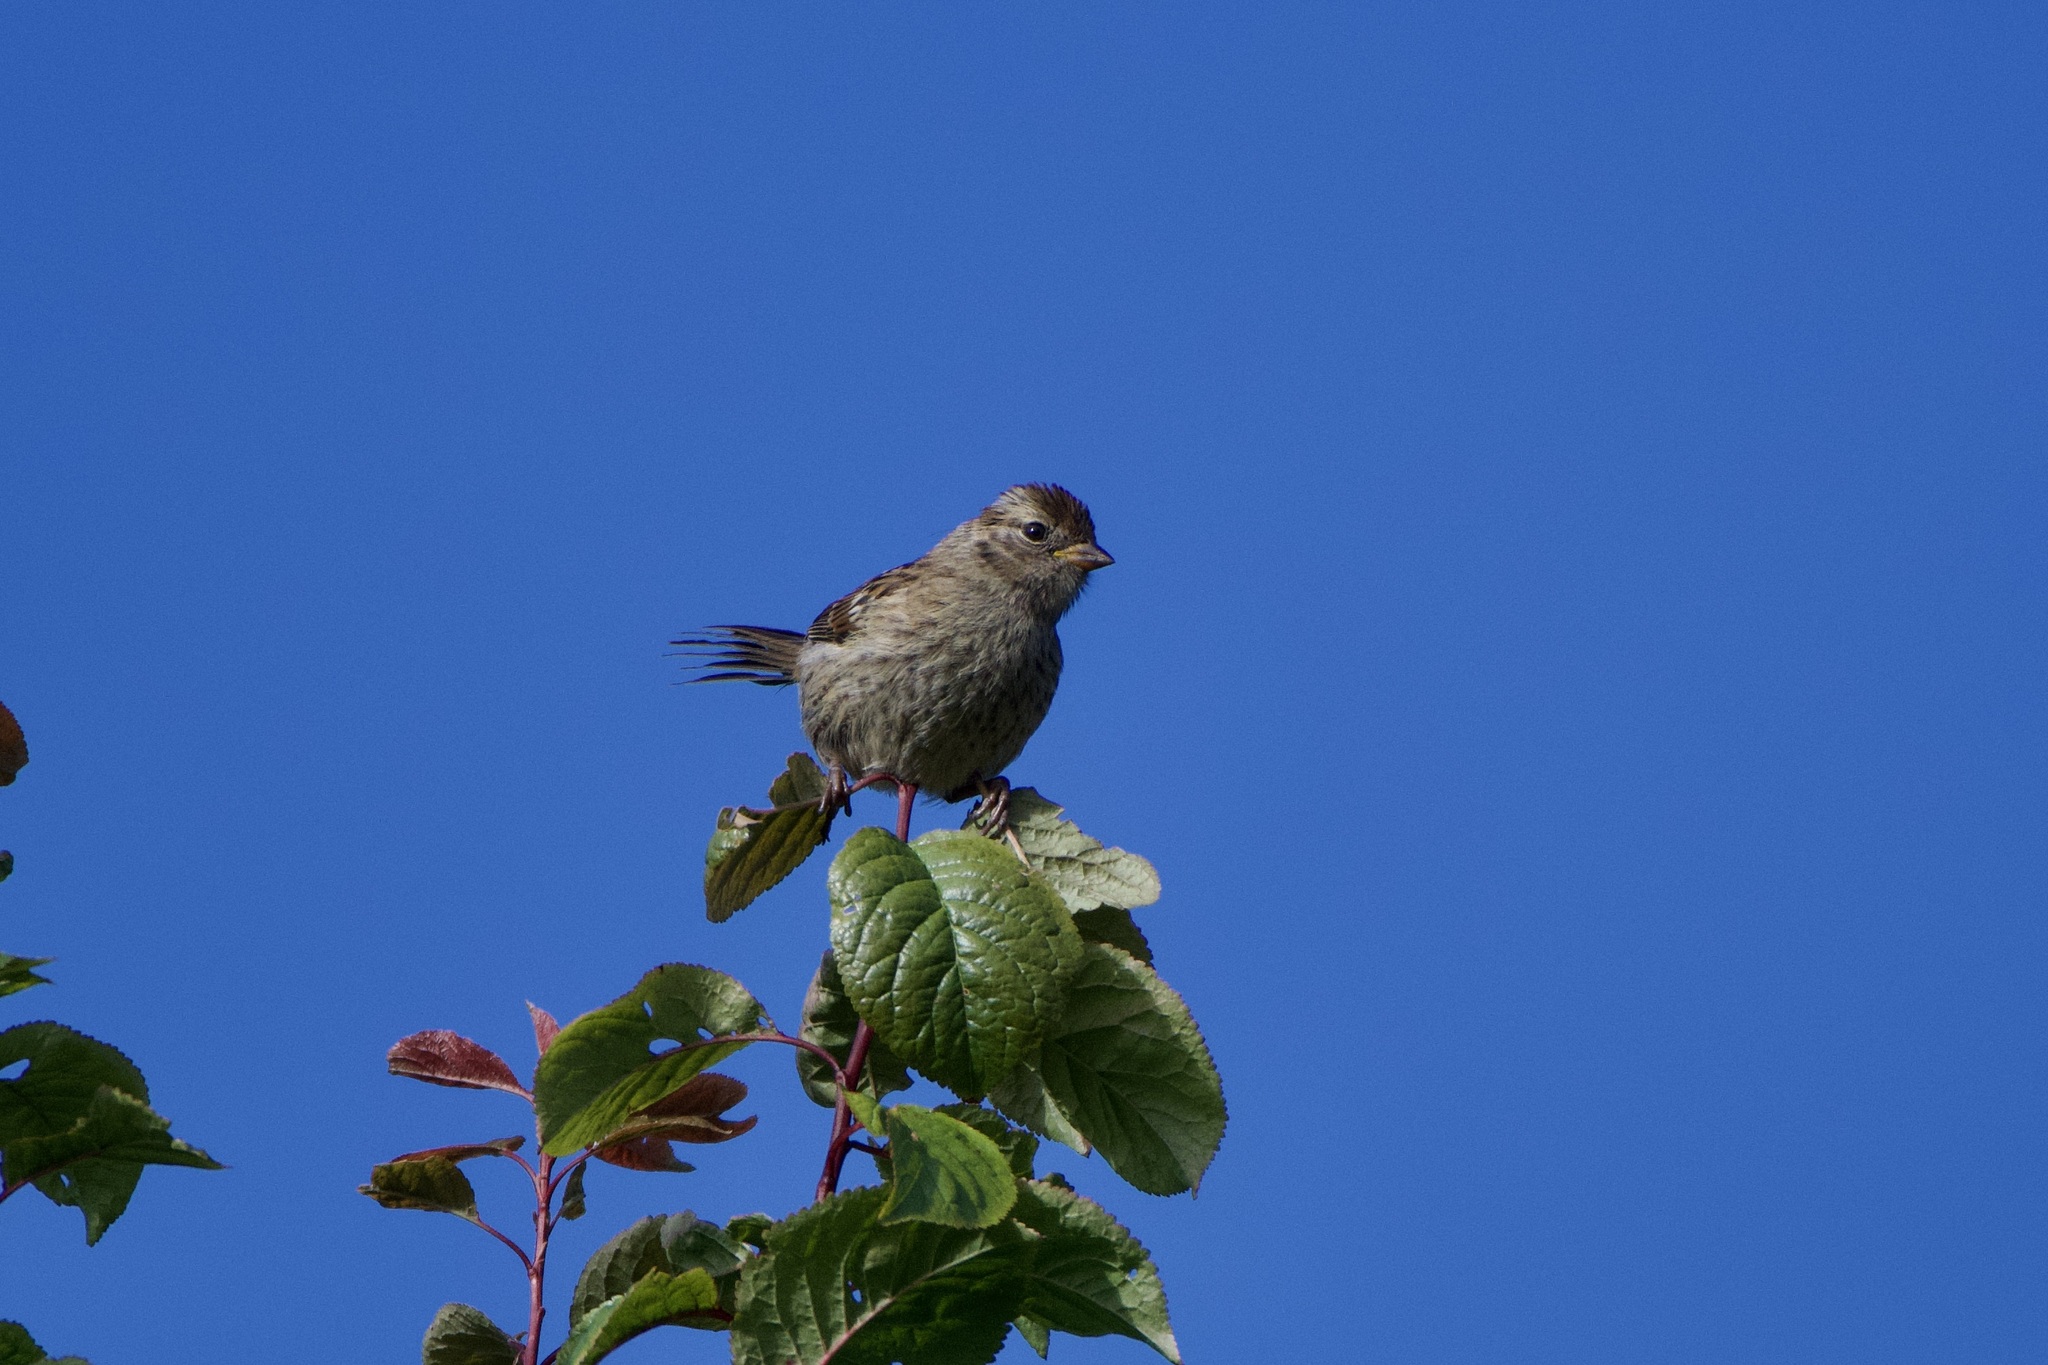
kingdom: Animalia
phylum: Chordata
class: Aves
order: Passeriformes
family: Passerellidae
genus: Zonotrichia
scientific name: Zonotrichia leucophrys
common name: White-crowned sparrow
